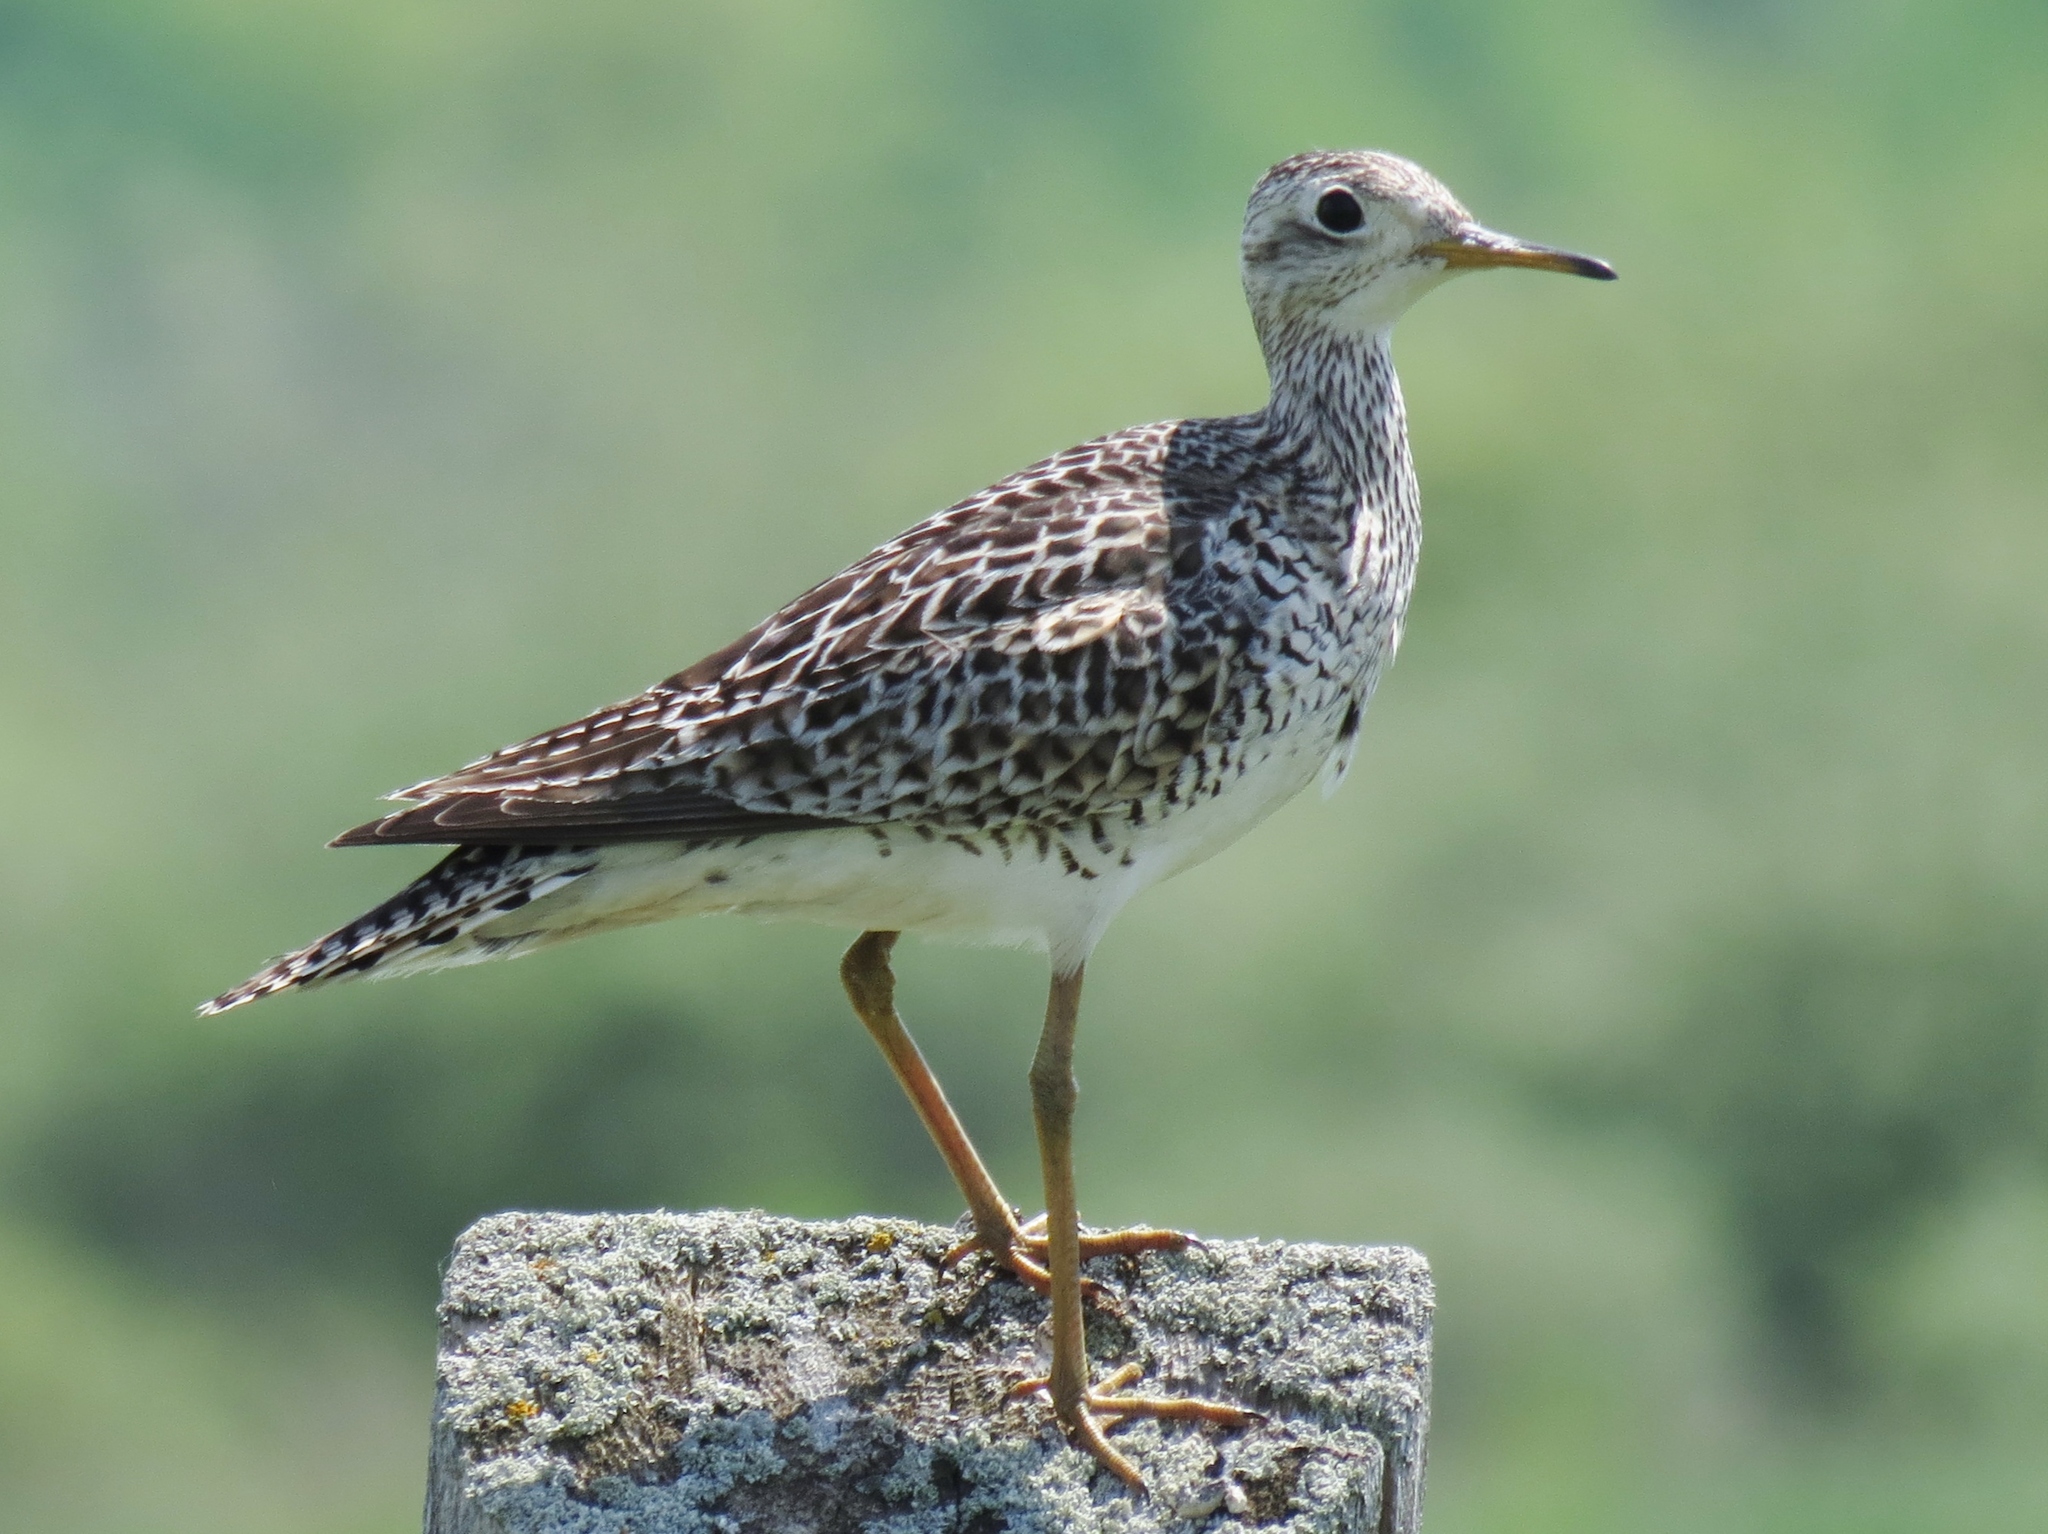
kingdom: Animalia
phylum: Chordata
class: Aves
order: Charadriiformes
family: Scolopacidae
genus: Bartramia
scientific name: Bartramia longicauda
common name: Upland sandpiper
